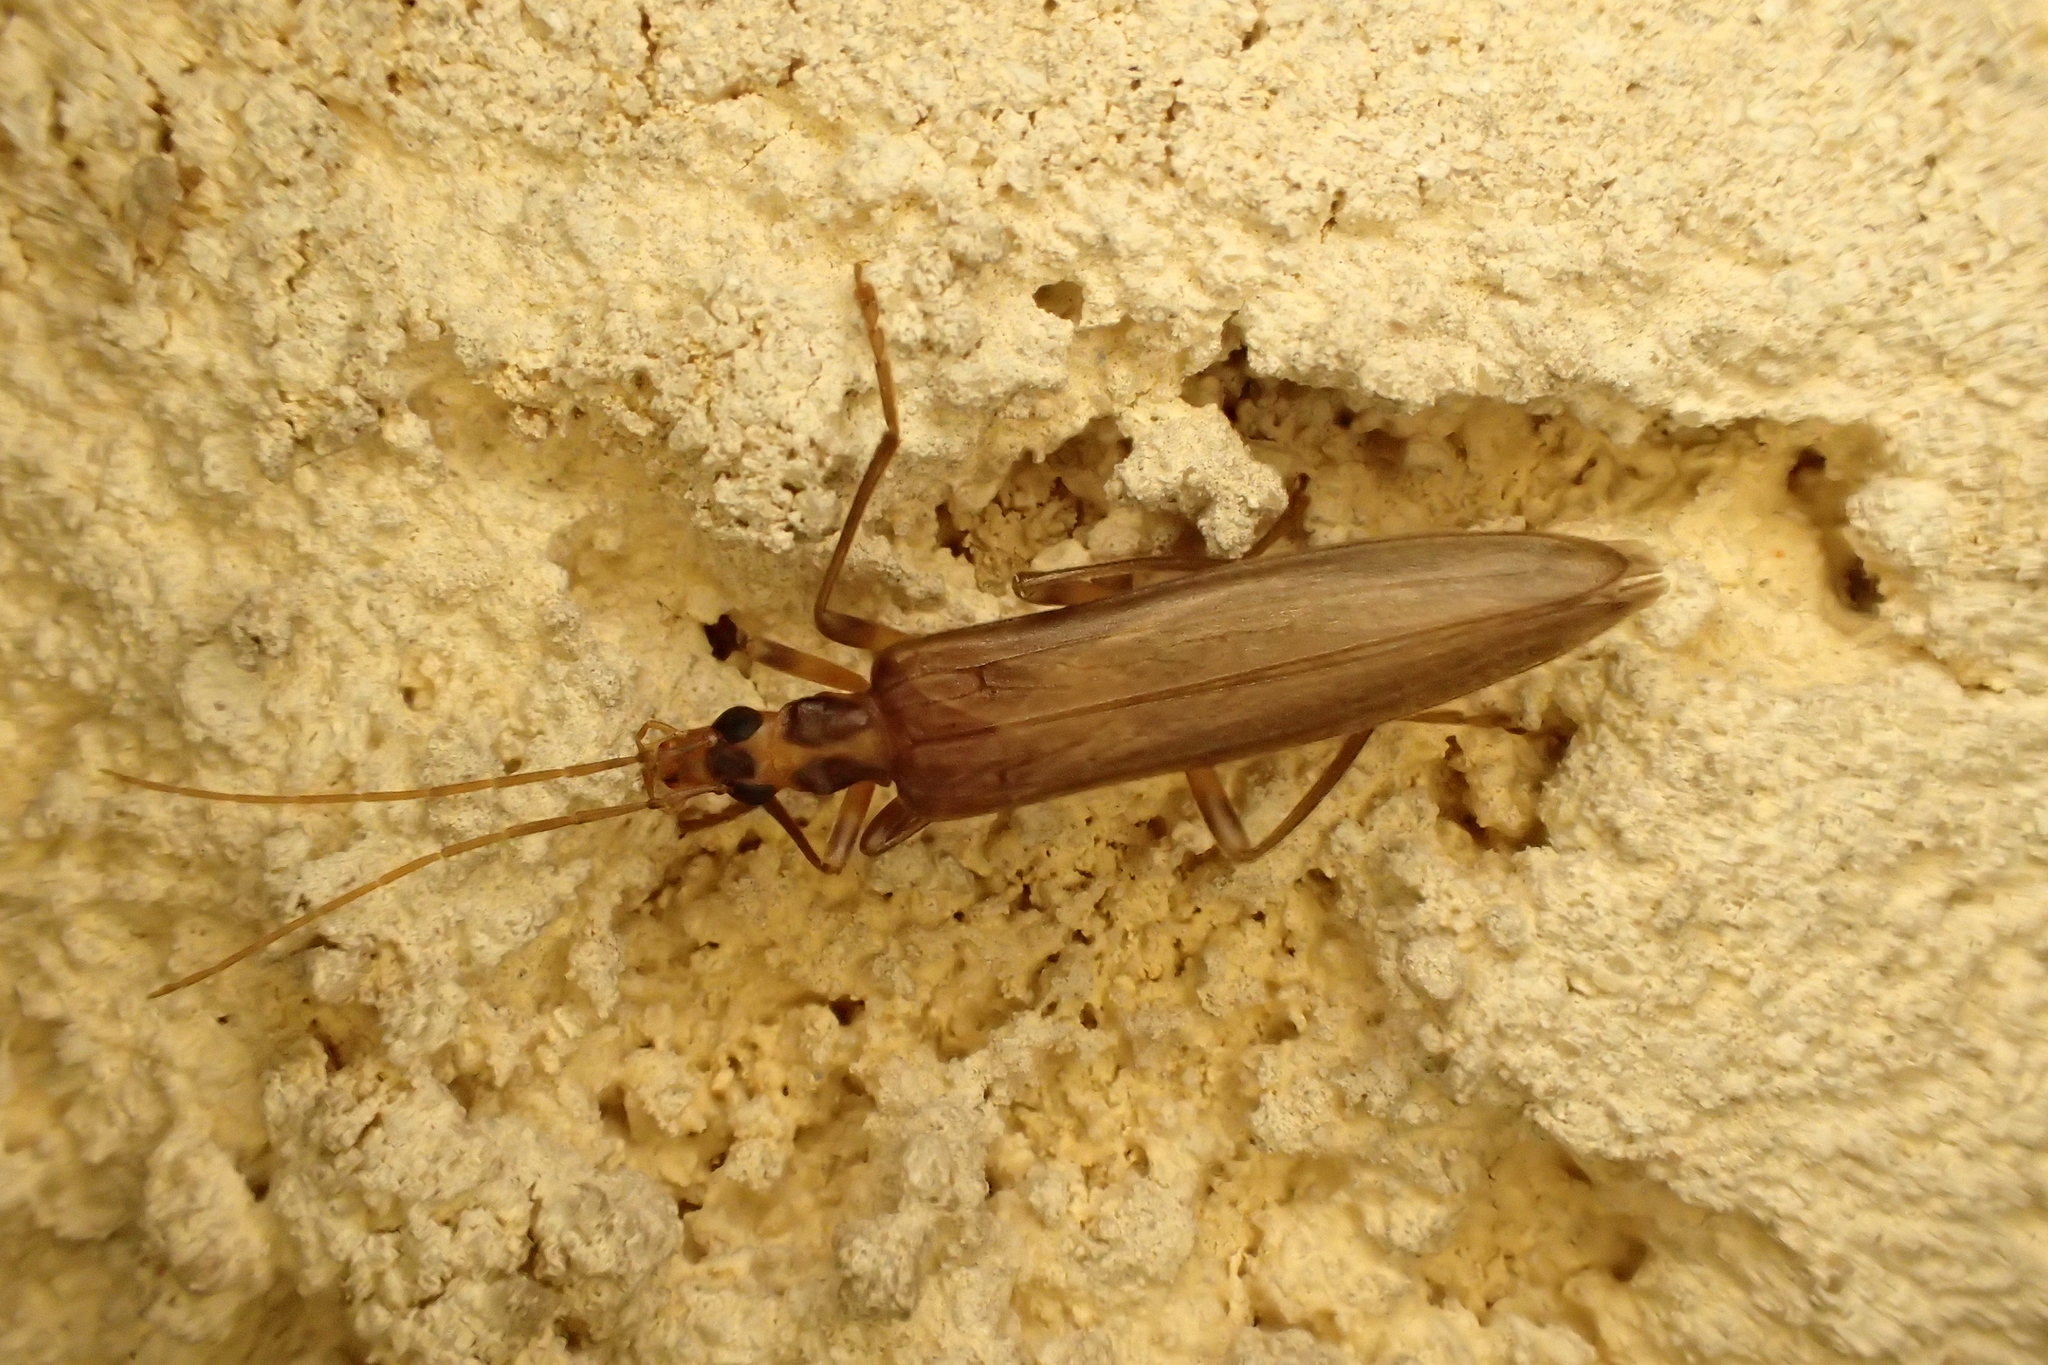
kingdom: Animalia
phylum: Arthropoda
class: Insecta
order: Coleoptera
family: Oedemeridae
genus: Oedemera
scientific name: Oedemera femoralis
